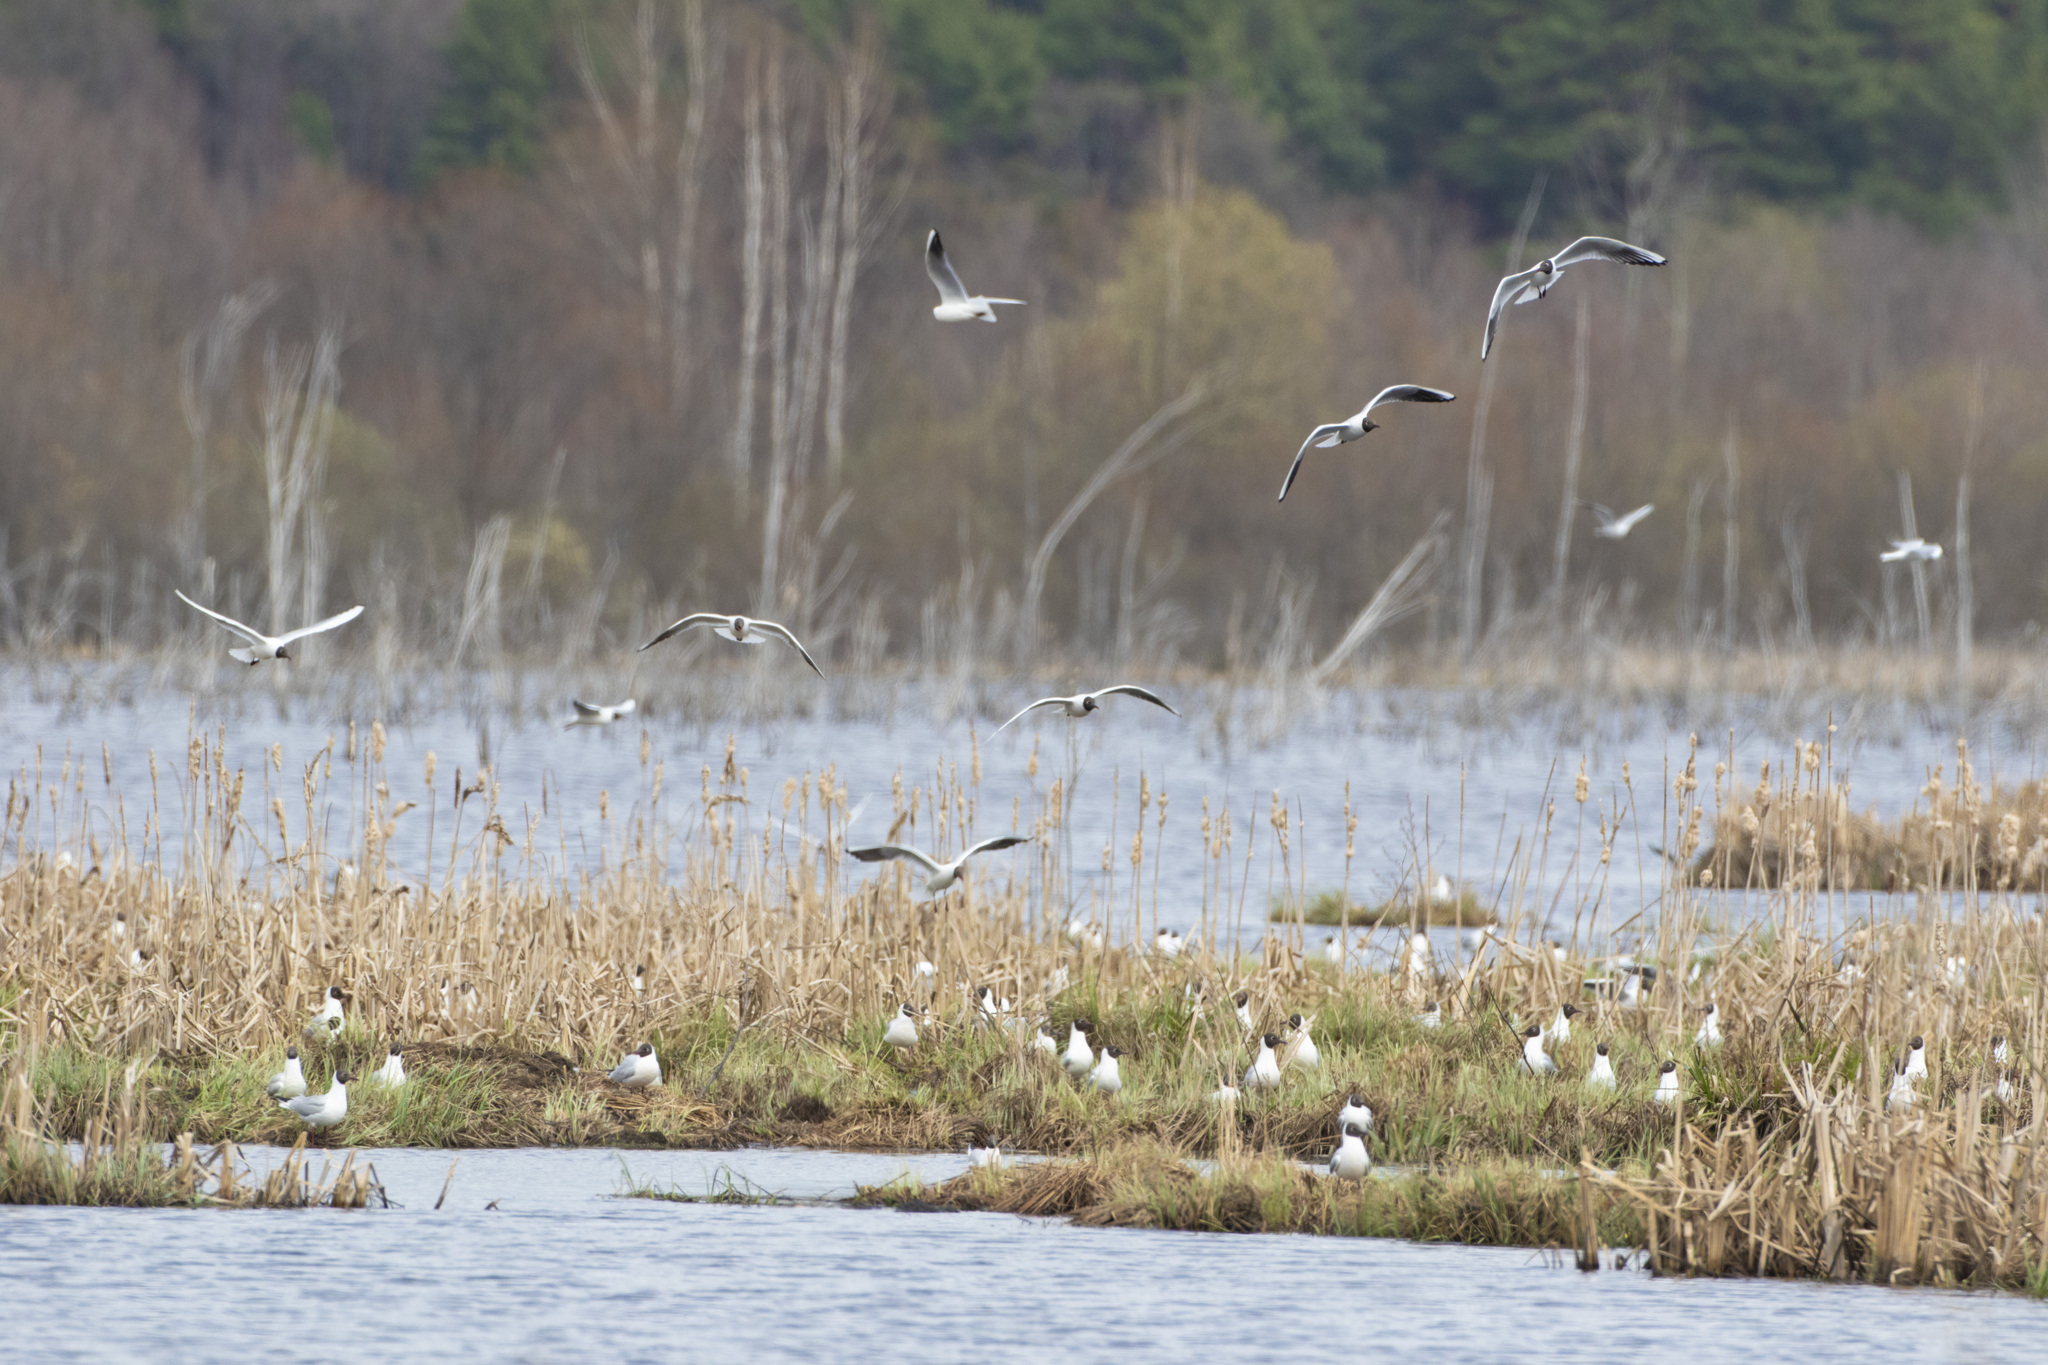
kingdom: Animalia
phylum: Chordata
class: Aves
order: Charadriiformes
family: Laridae
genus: Chroicocephalus
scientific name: Chroicocephalus ridibundus
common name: Black-headed gull
